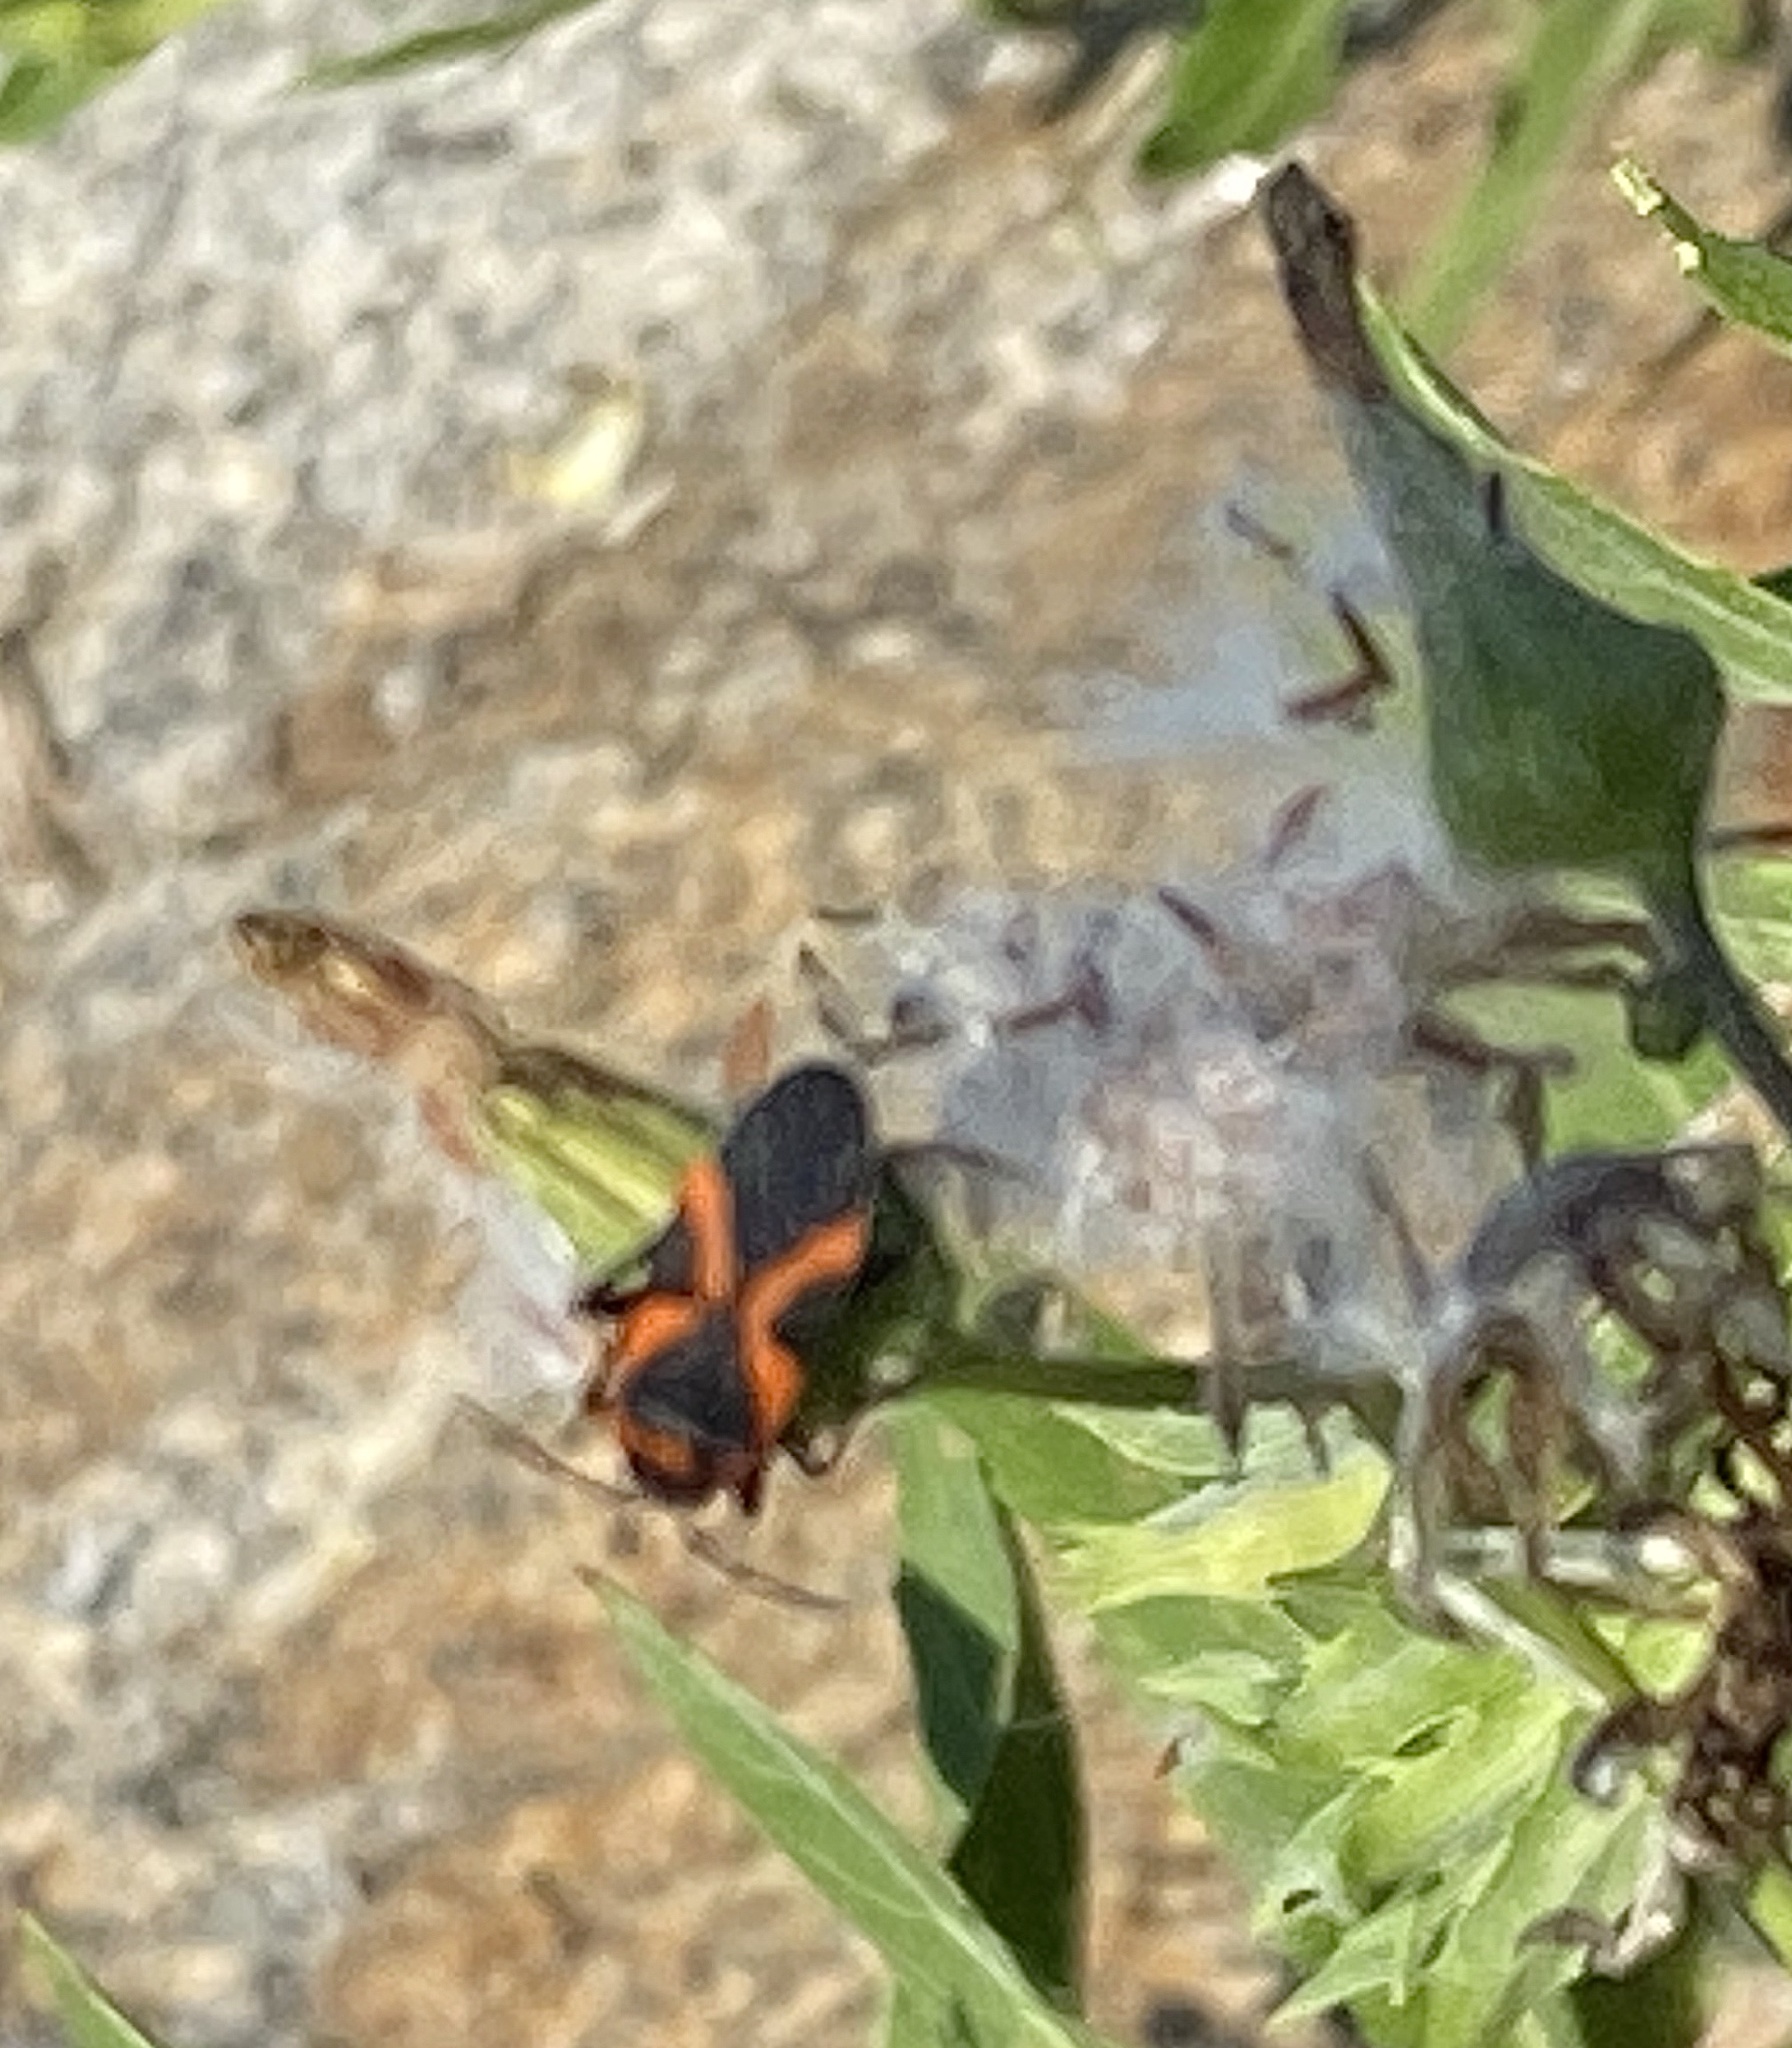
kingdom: Animalia
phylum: Arthropoda
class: Insecta
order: Hemiptera
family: Lygaeidae
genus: Lygaeus
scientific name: Lygaeus kalmii
